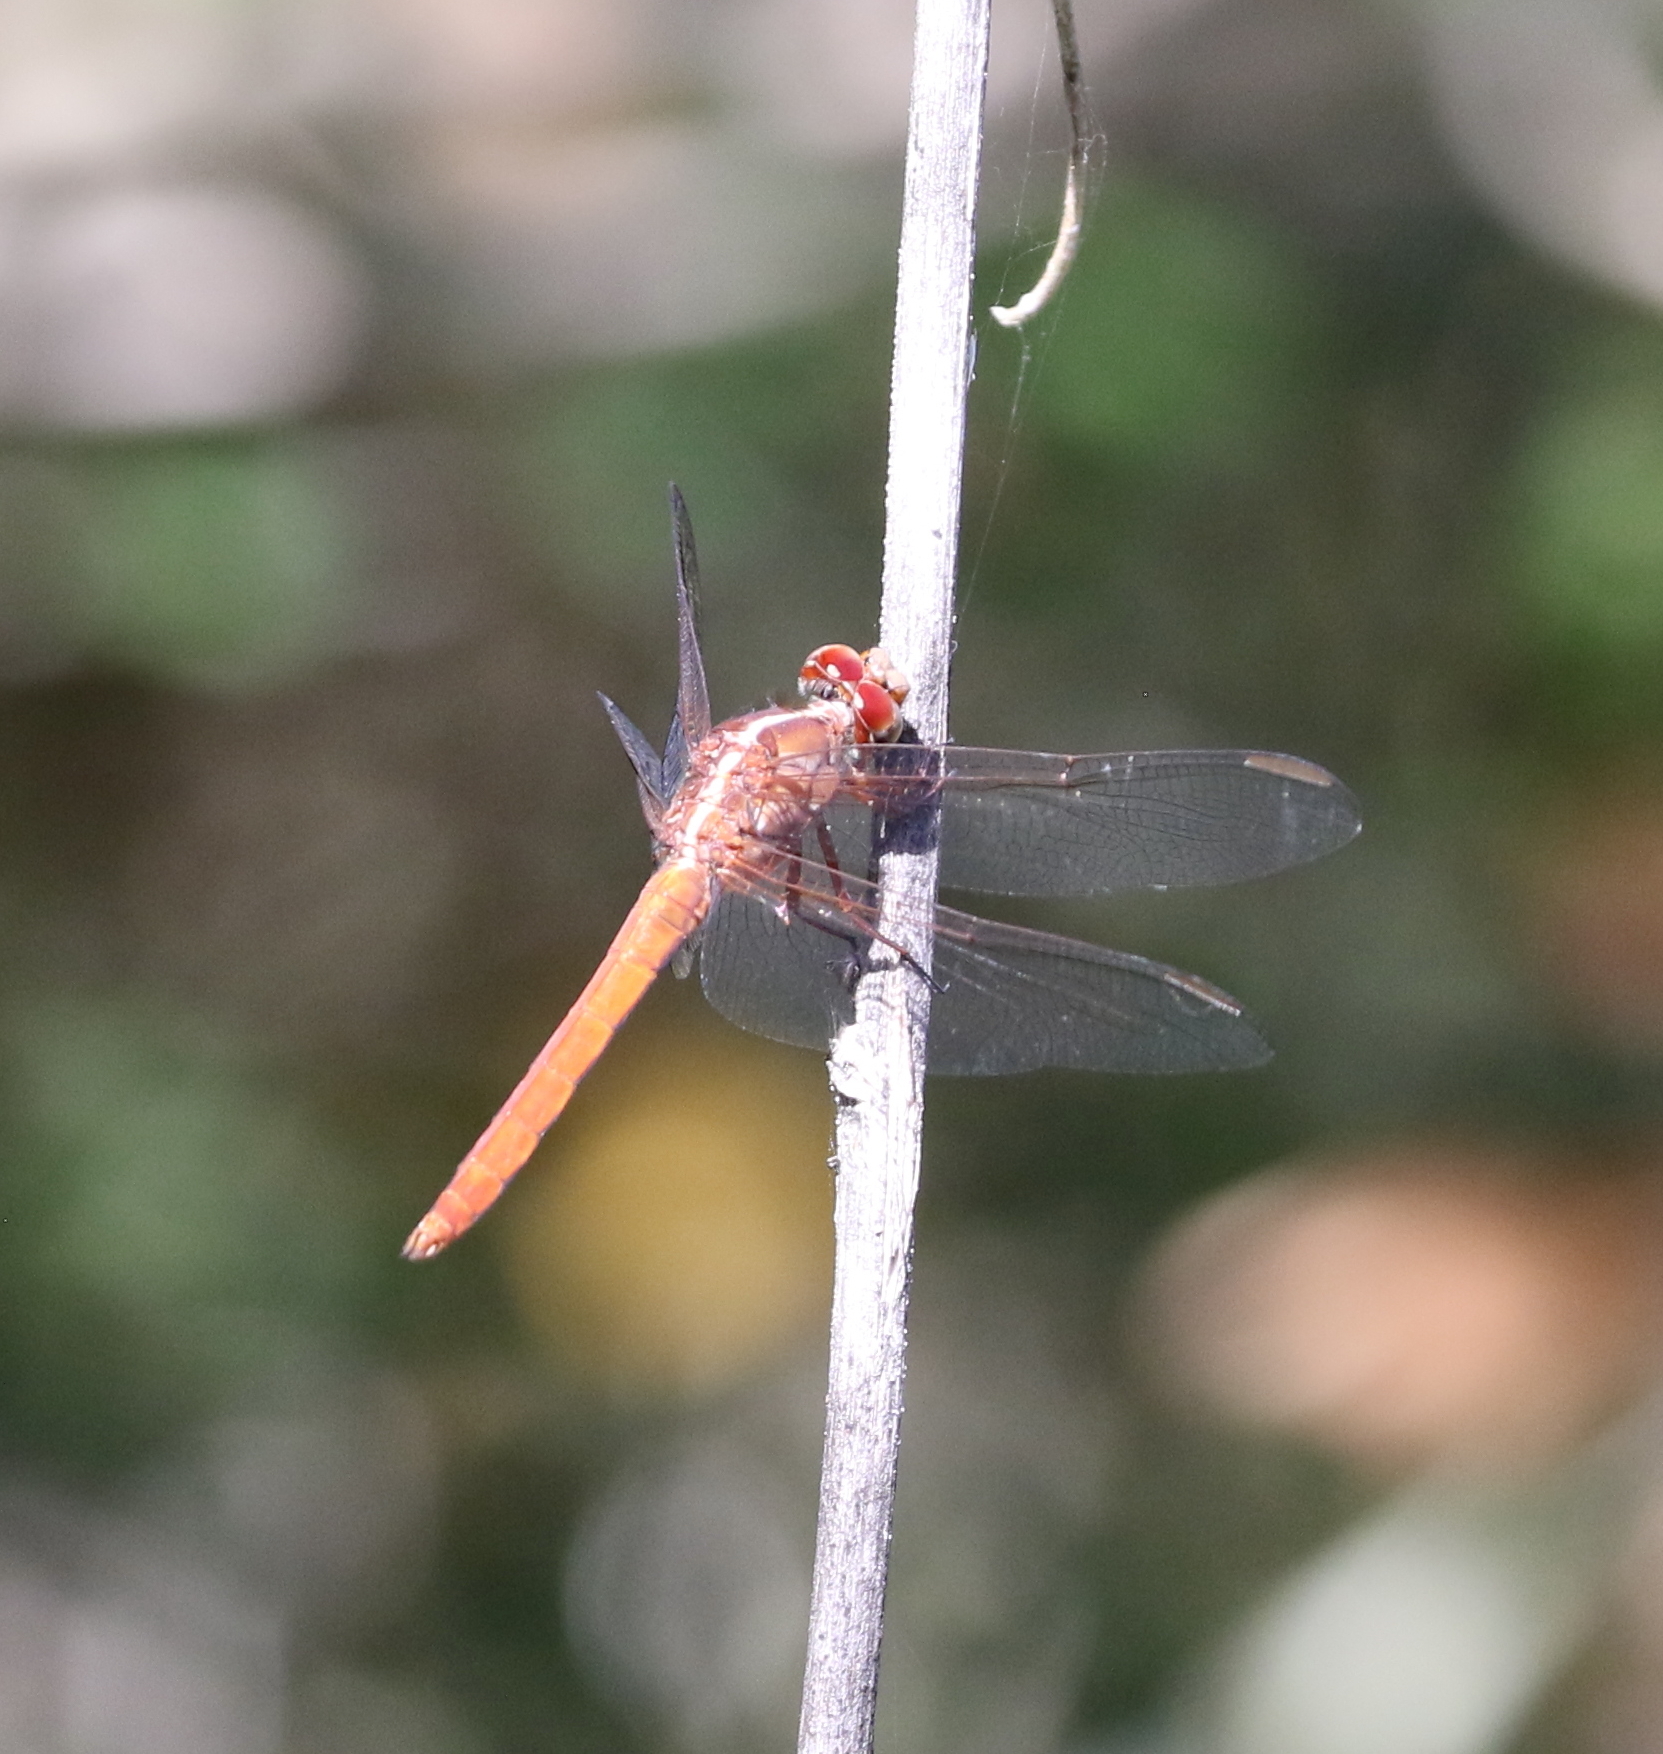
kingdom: Animalia
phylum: Arthropoda
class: Insecta
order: Odonata
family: Libellulidae
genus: Orthemis
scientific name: Orthemis ferruginea
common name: Roseate skimmer
